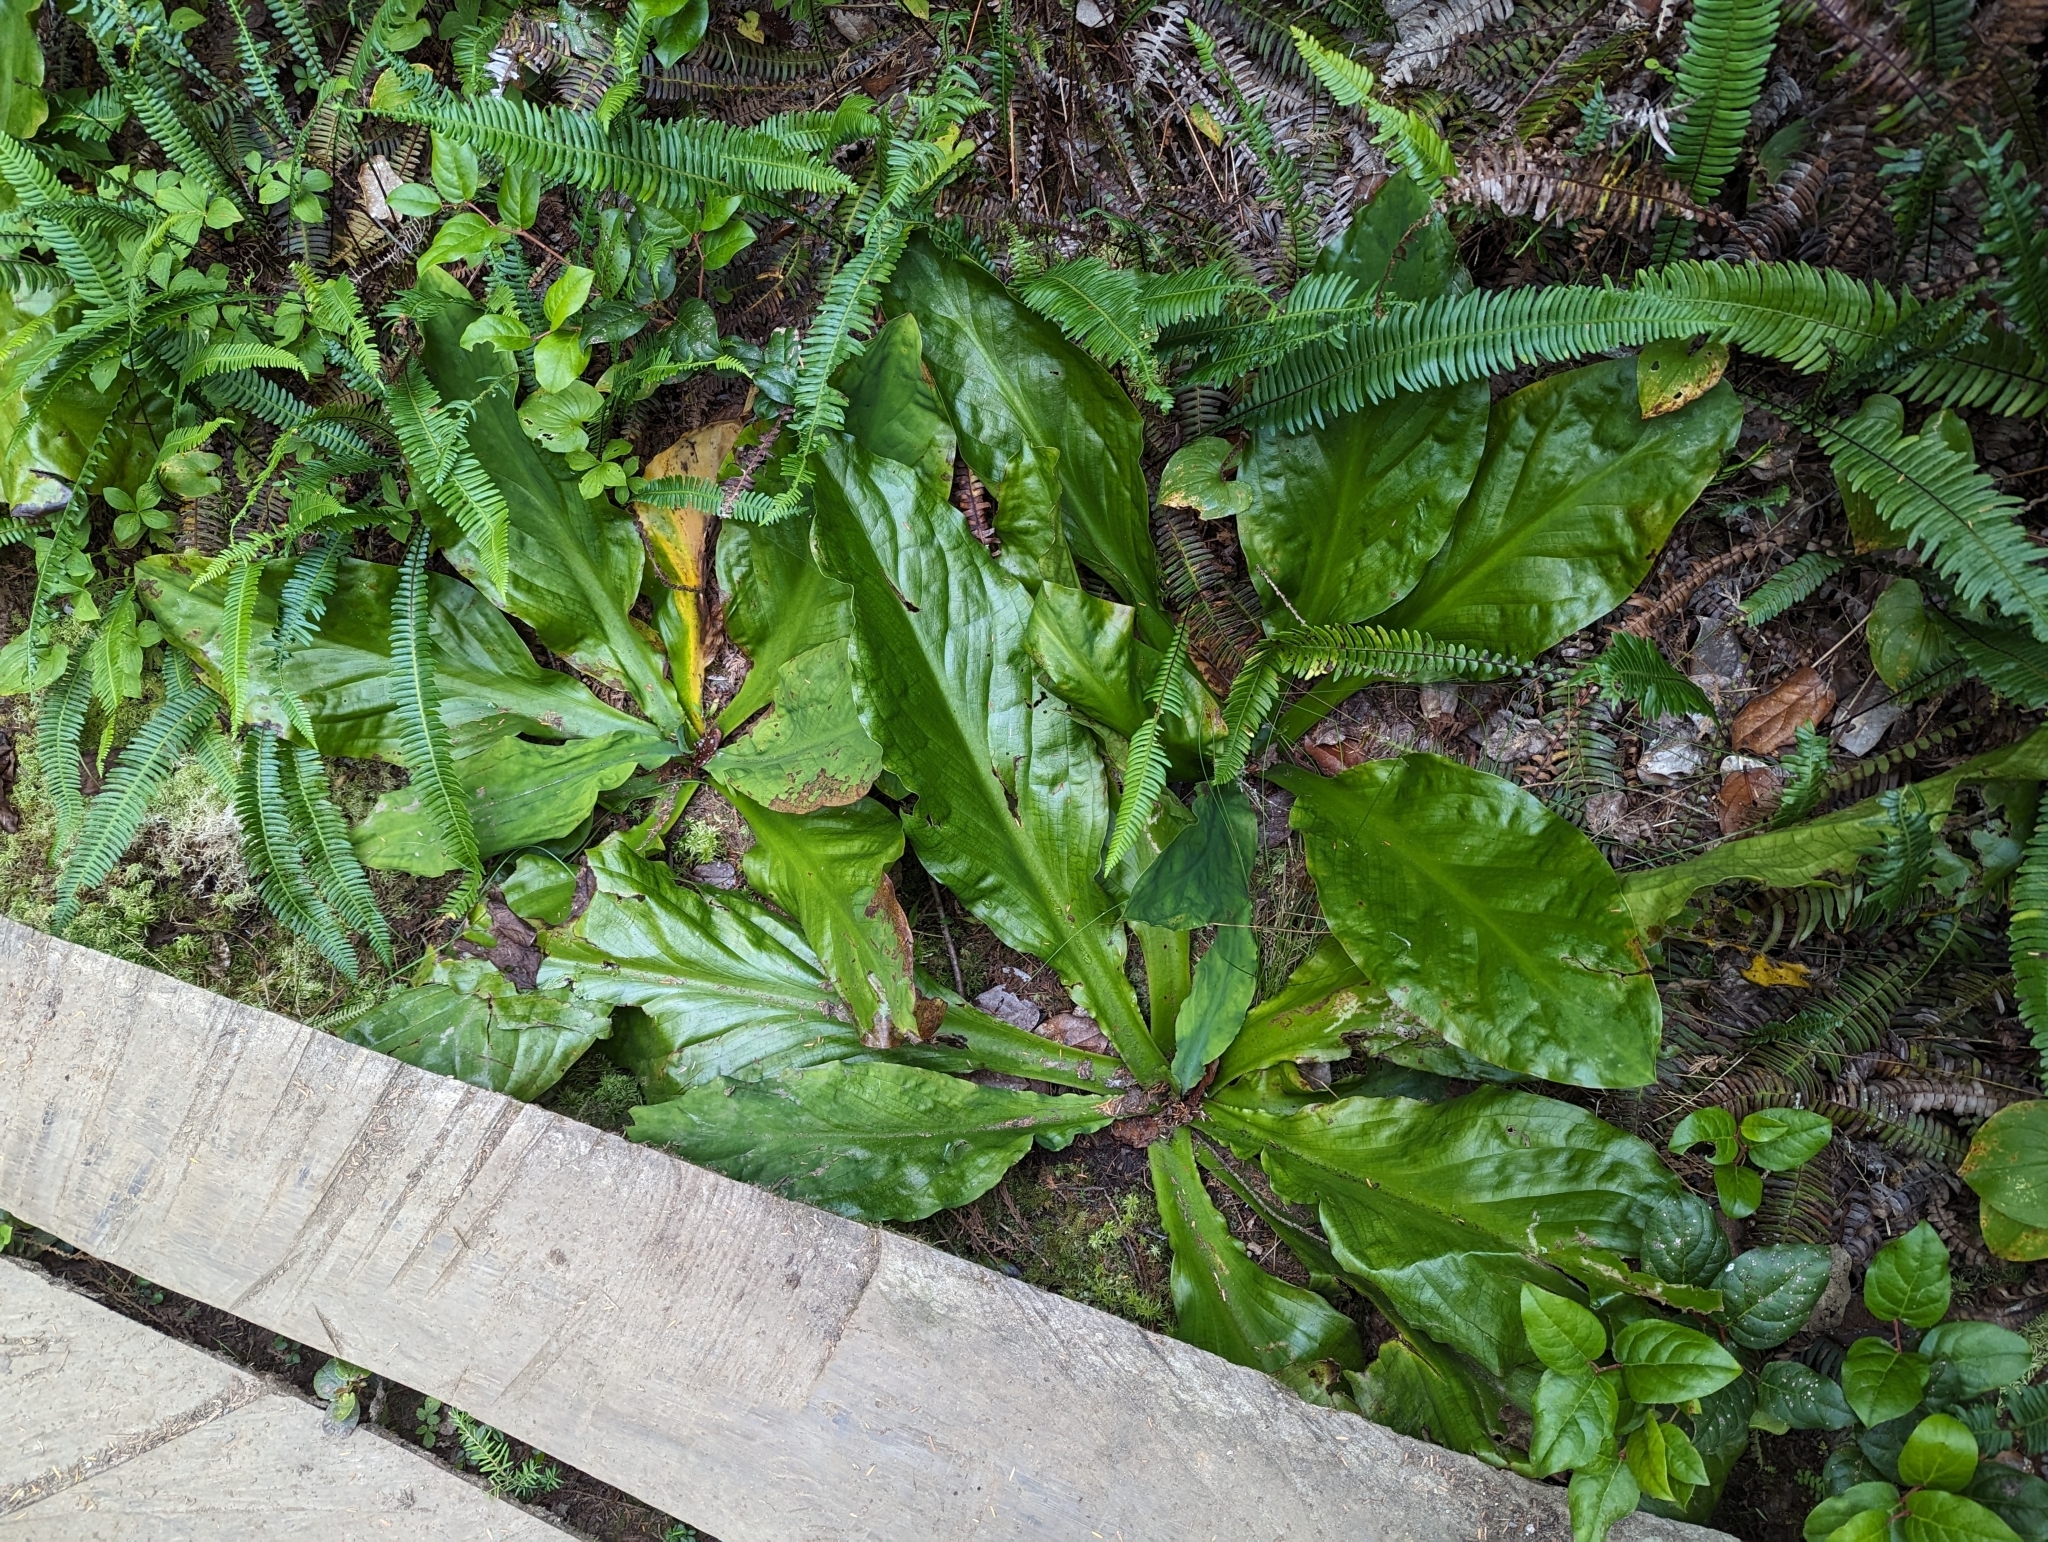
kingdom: Plantae
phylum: Tracheophyta
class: Liliopsida
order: Alismatales
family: Araceae
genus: Lysichiton
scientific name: Lysichiton americanus
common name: American skunk cabbage
